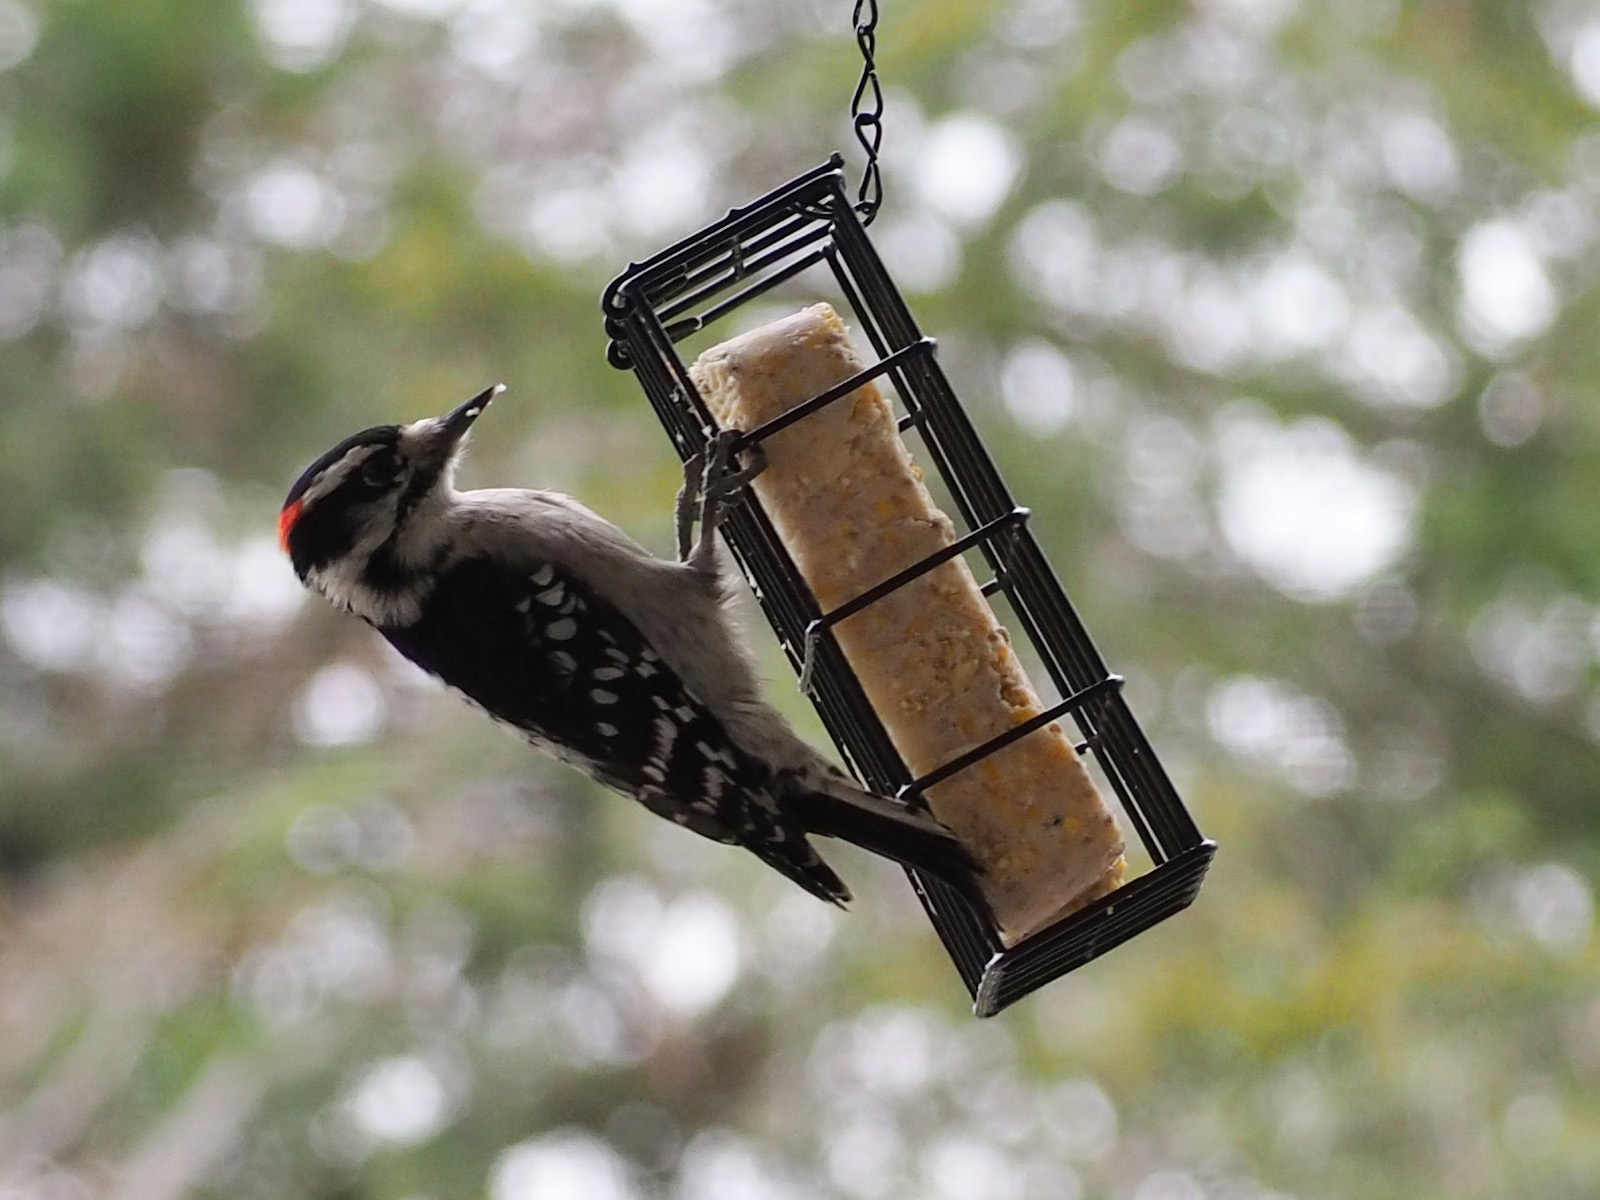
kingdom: Animalia
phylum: Chordata
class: Aves
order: Piciformes
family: Picidae
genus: Dryobates
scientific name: Dryobates pubescens
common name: Downy woodpecker
